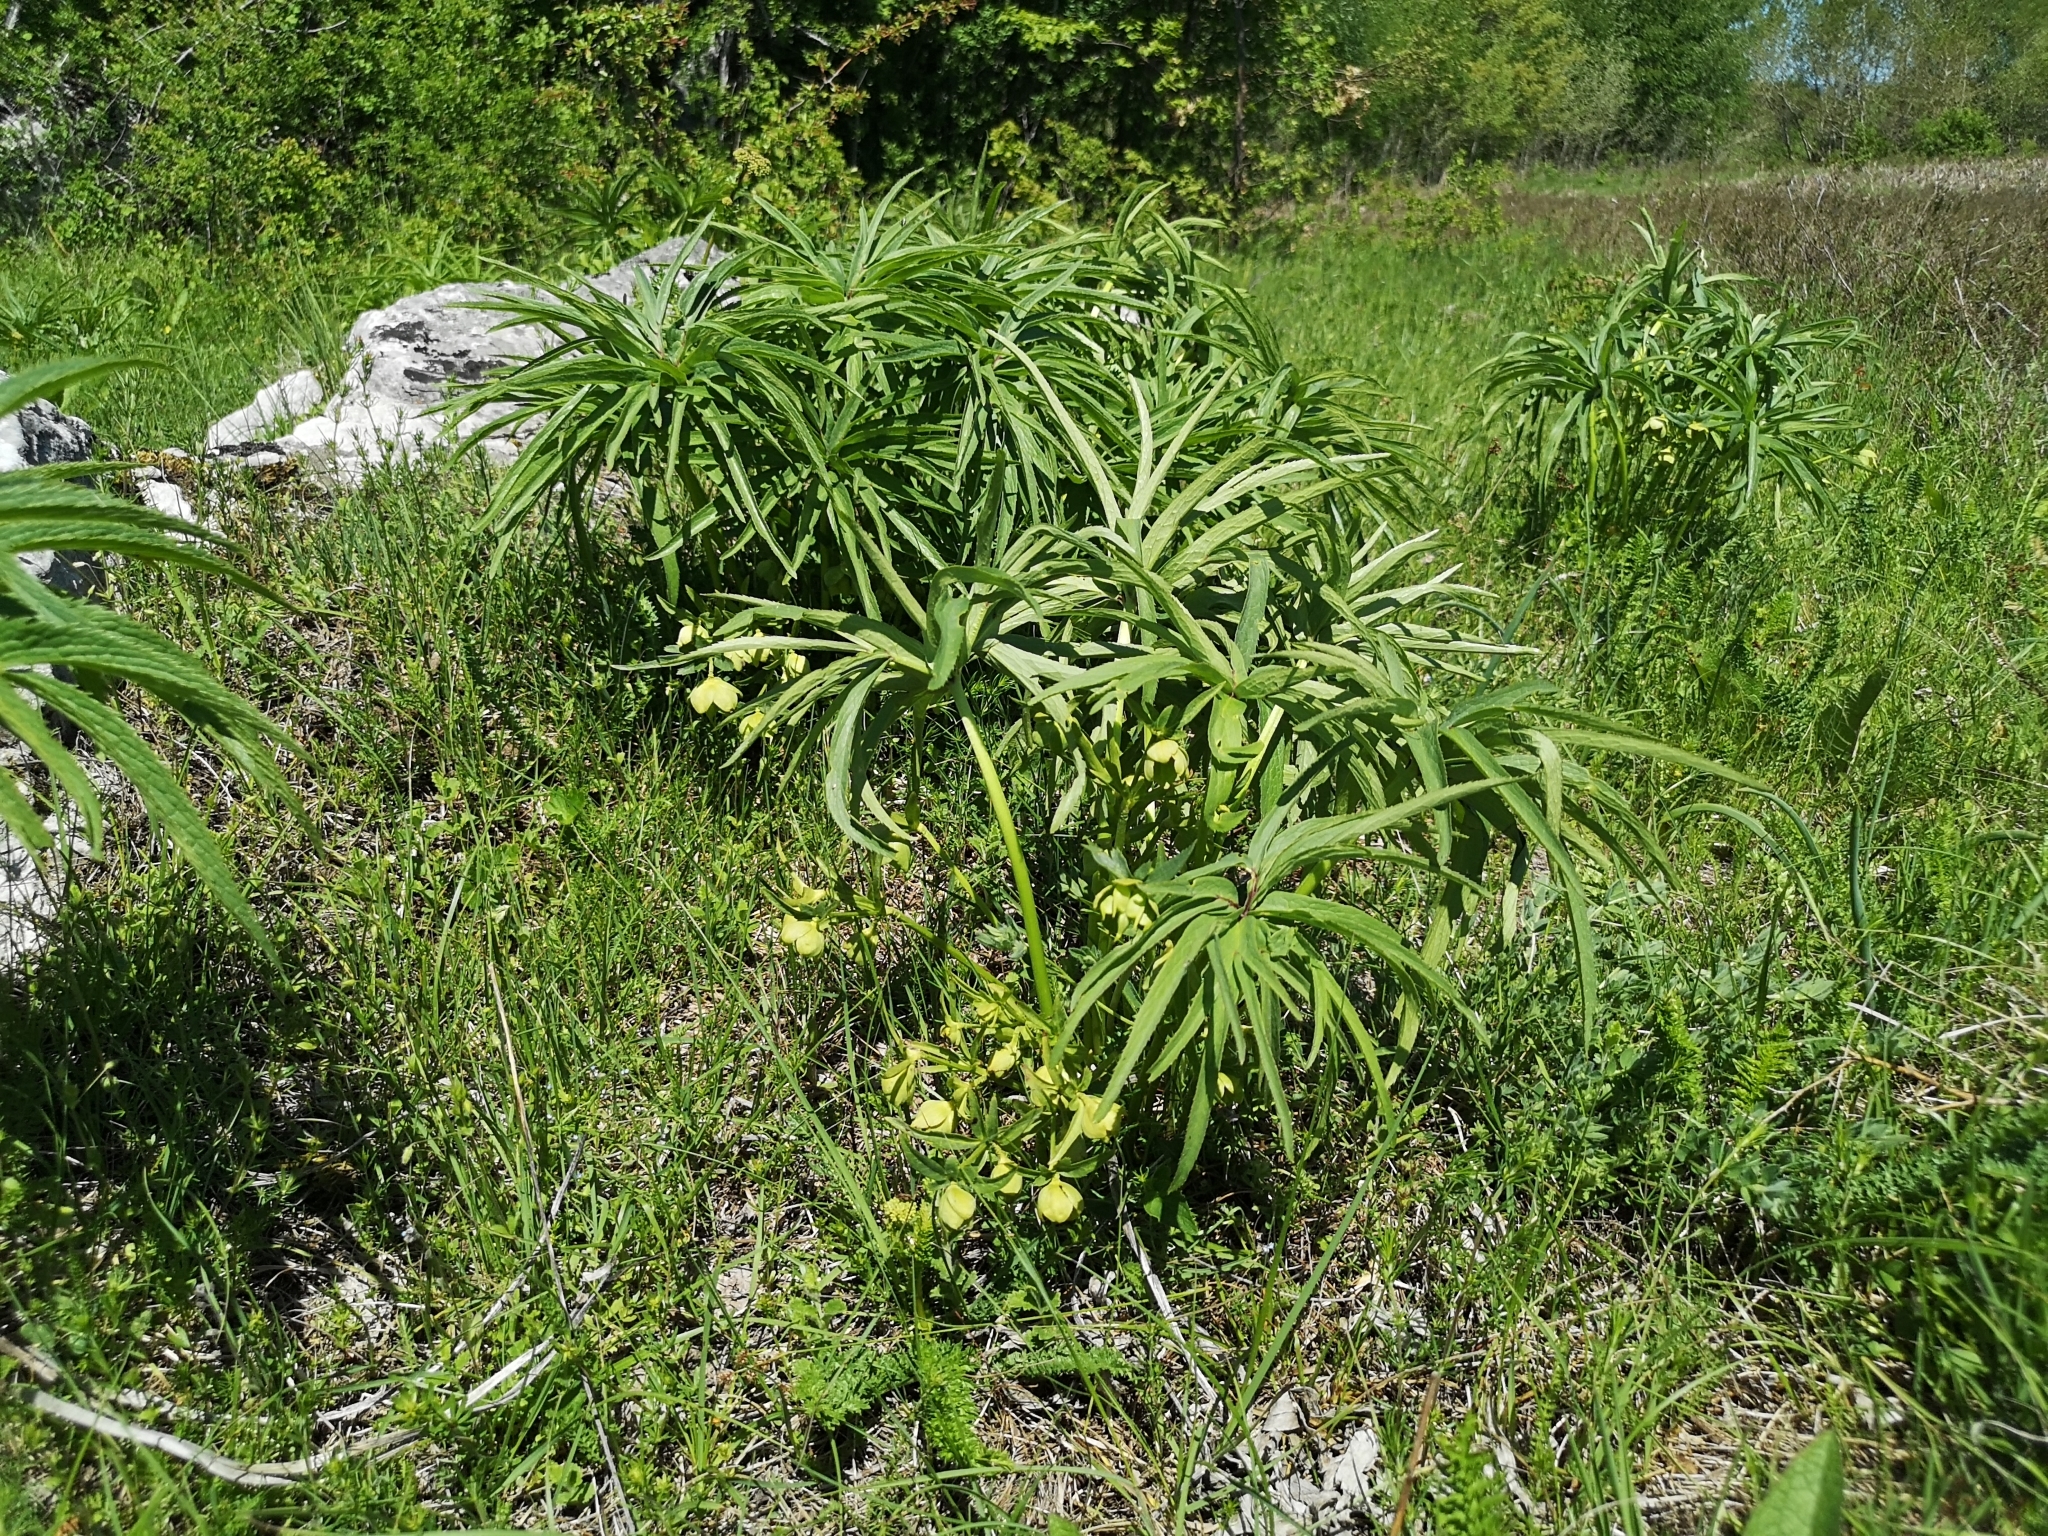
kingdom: Plantae
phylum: Tracheophyta
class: Magnoliopsida
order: Ranunculales
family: Ranunculaceae
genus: Helleborus
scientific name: Helleborus multifidus
